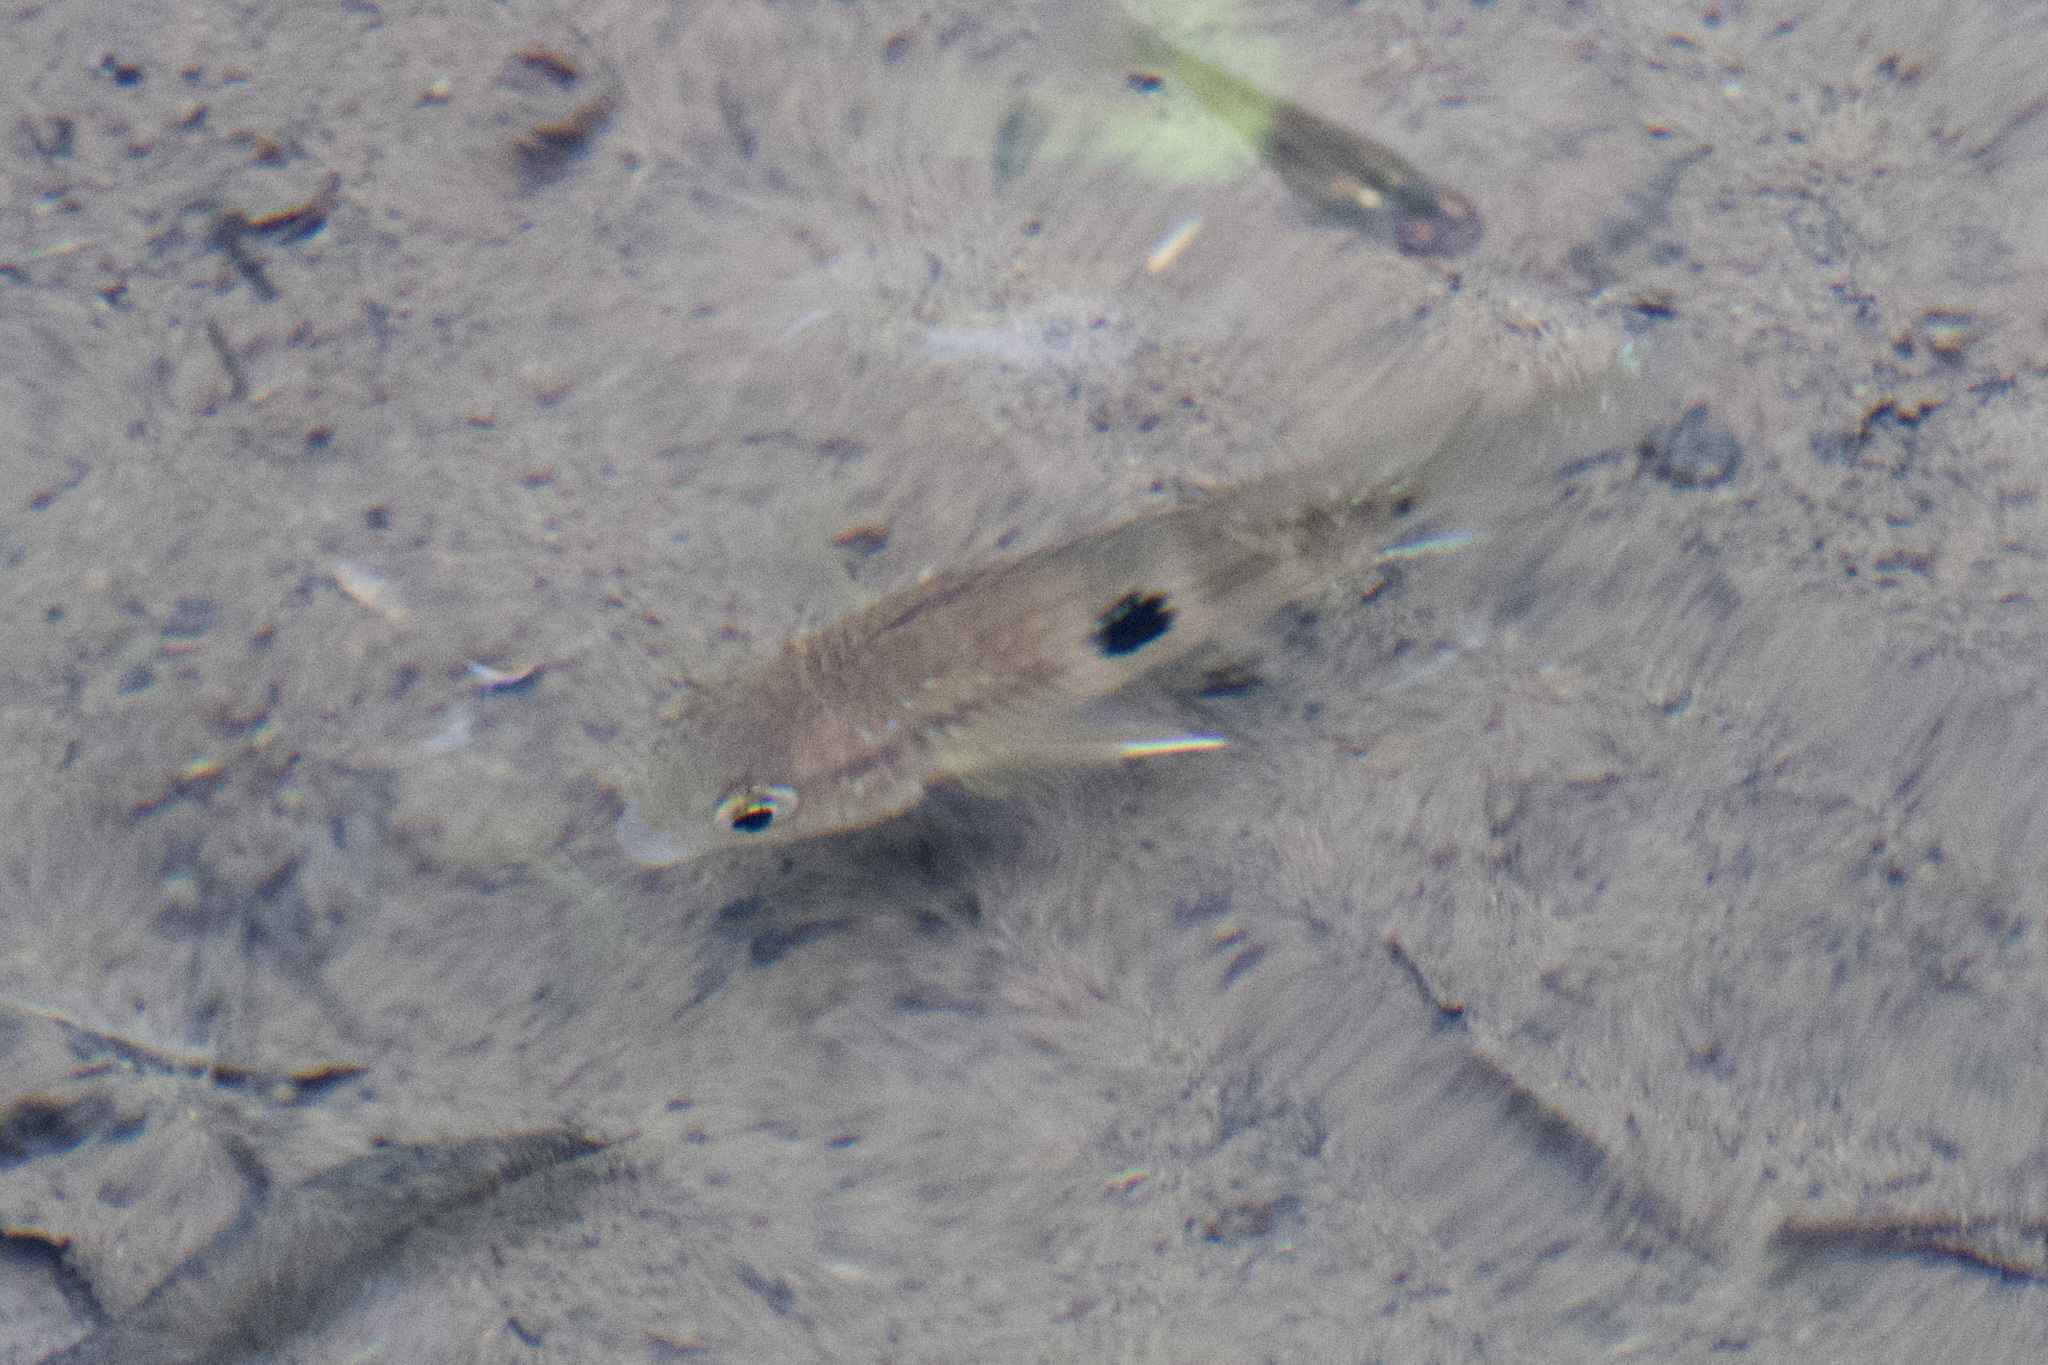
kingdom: Animalia
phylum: Chordata
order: Perciformes
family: Cichlidae
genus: Andinoacara
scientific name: Andinoacara coeruleopunctatus
